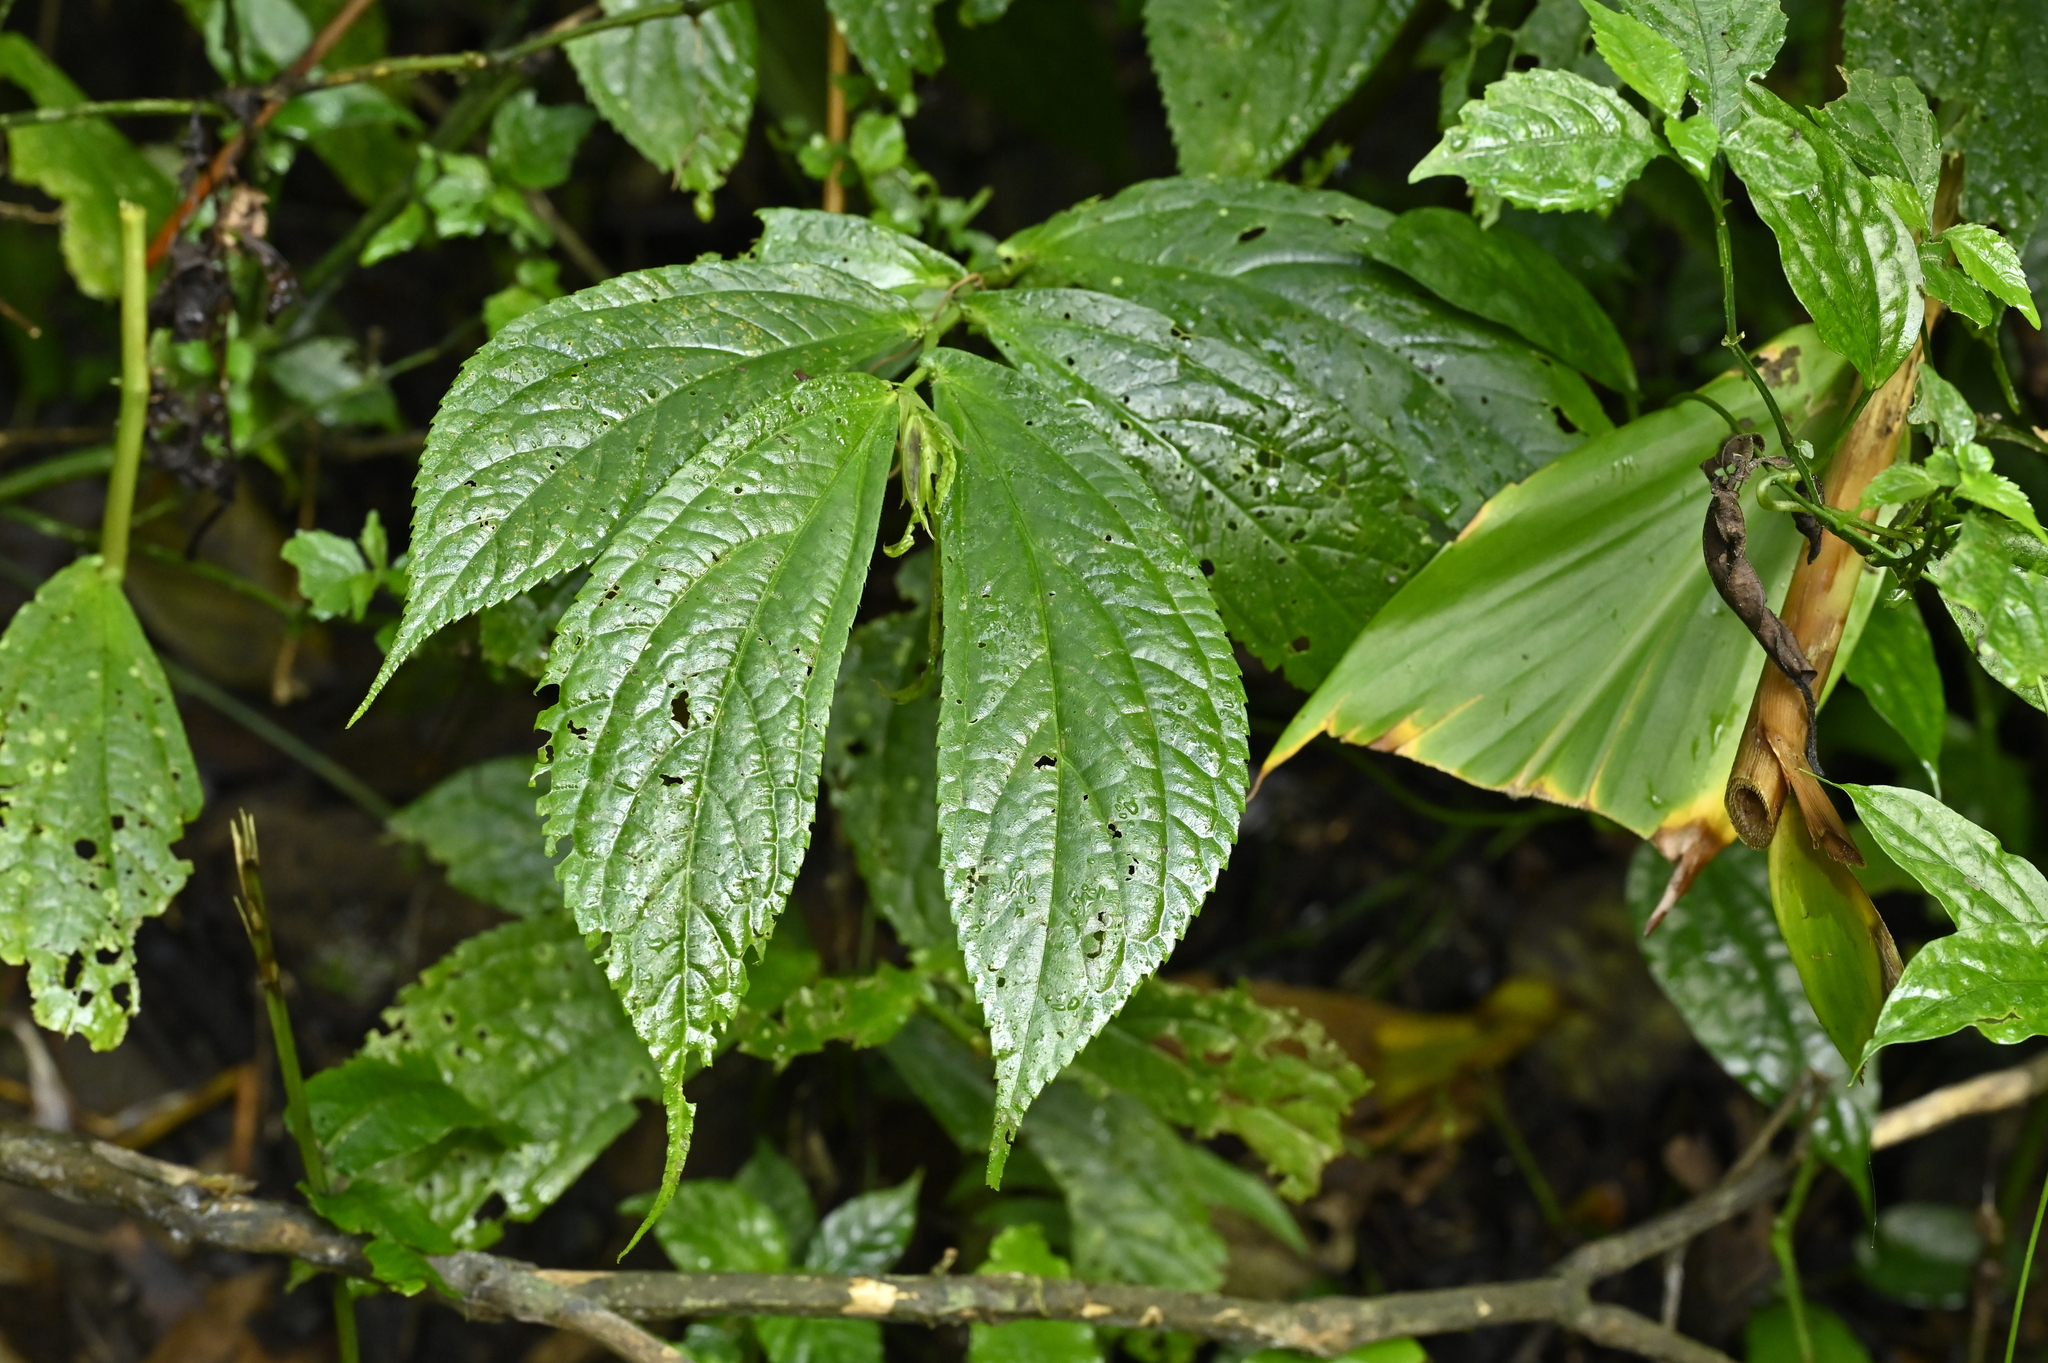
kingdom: Plantae
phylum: Tracheophyta
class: Magnoliopsida
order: Rosales
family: Urticaceae
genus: Elatostema
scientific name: Elatostema platyphyllum
